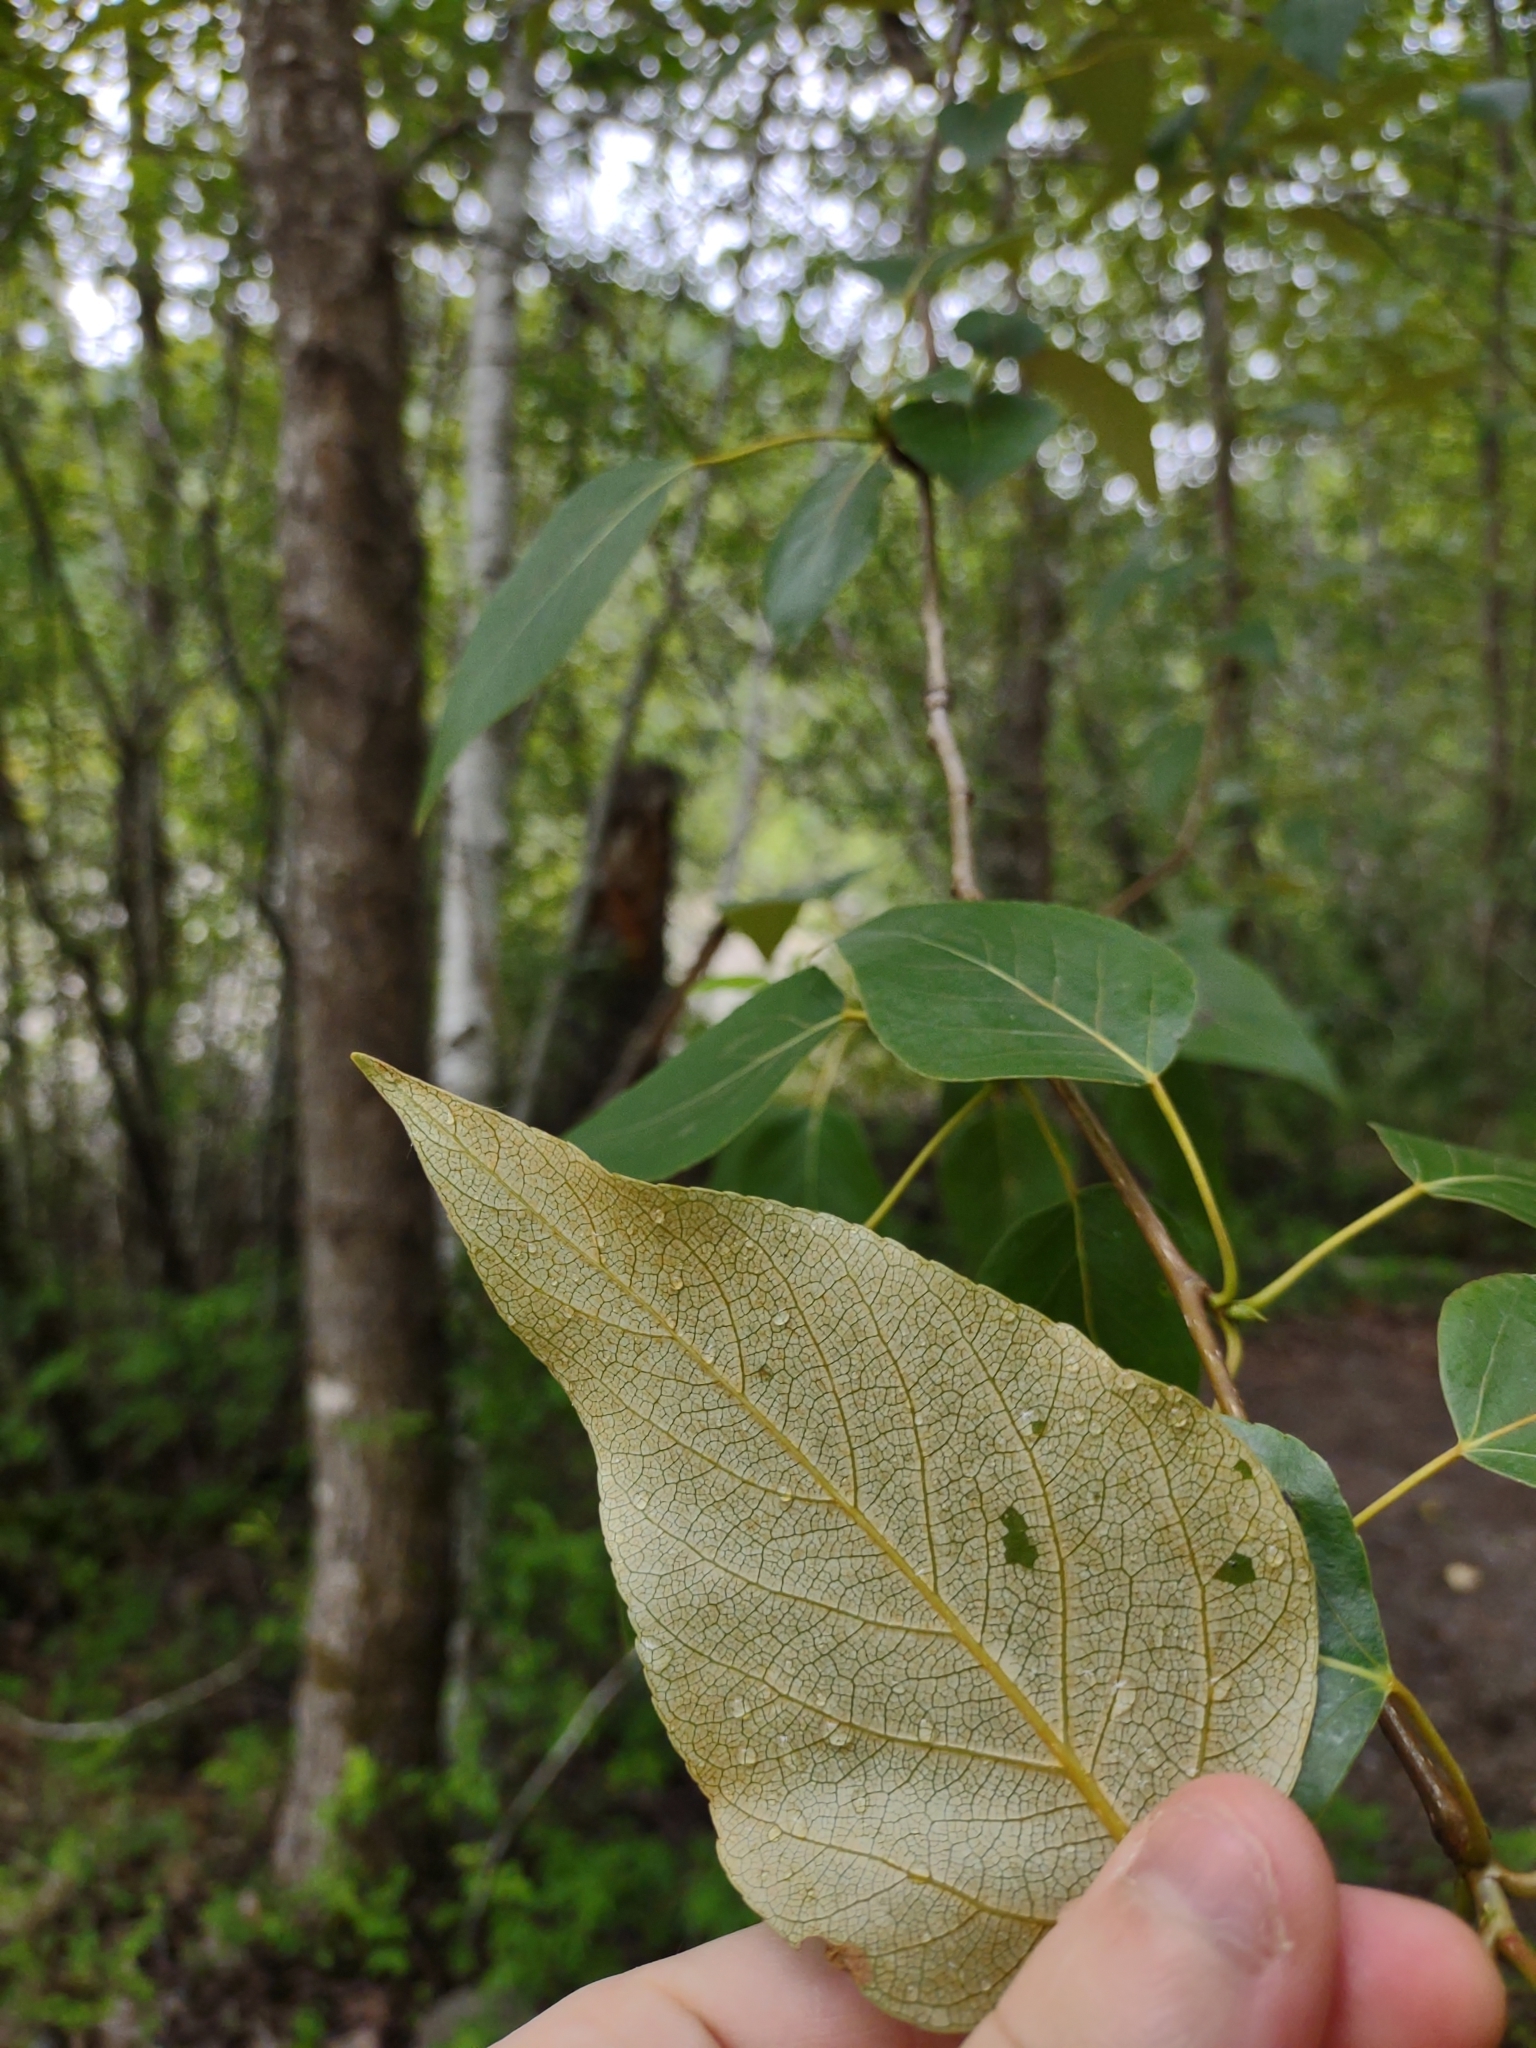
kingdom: Plantae
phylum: Tracheophyta
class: Magnoliopsida
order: Malpighiales
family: Salicaceae
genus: Populus
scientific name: Populus trichocarpa
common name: Black cottonwood
